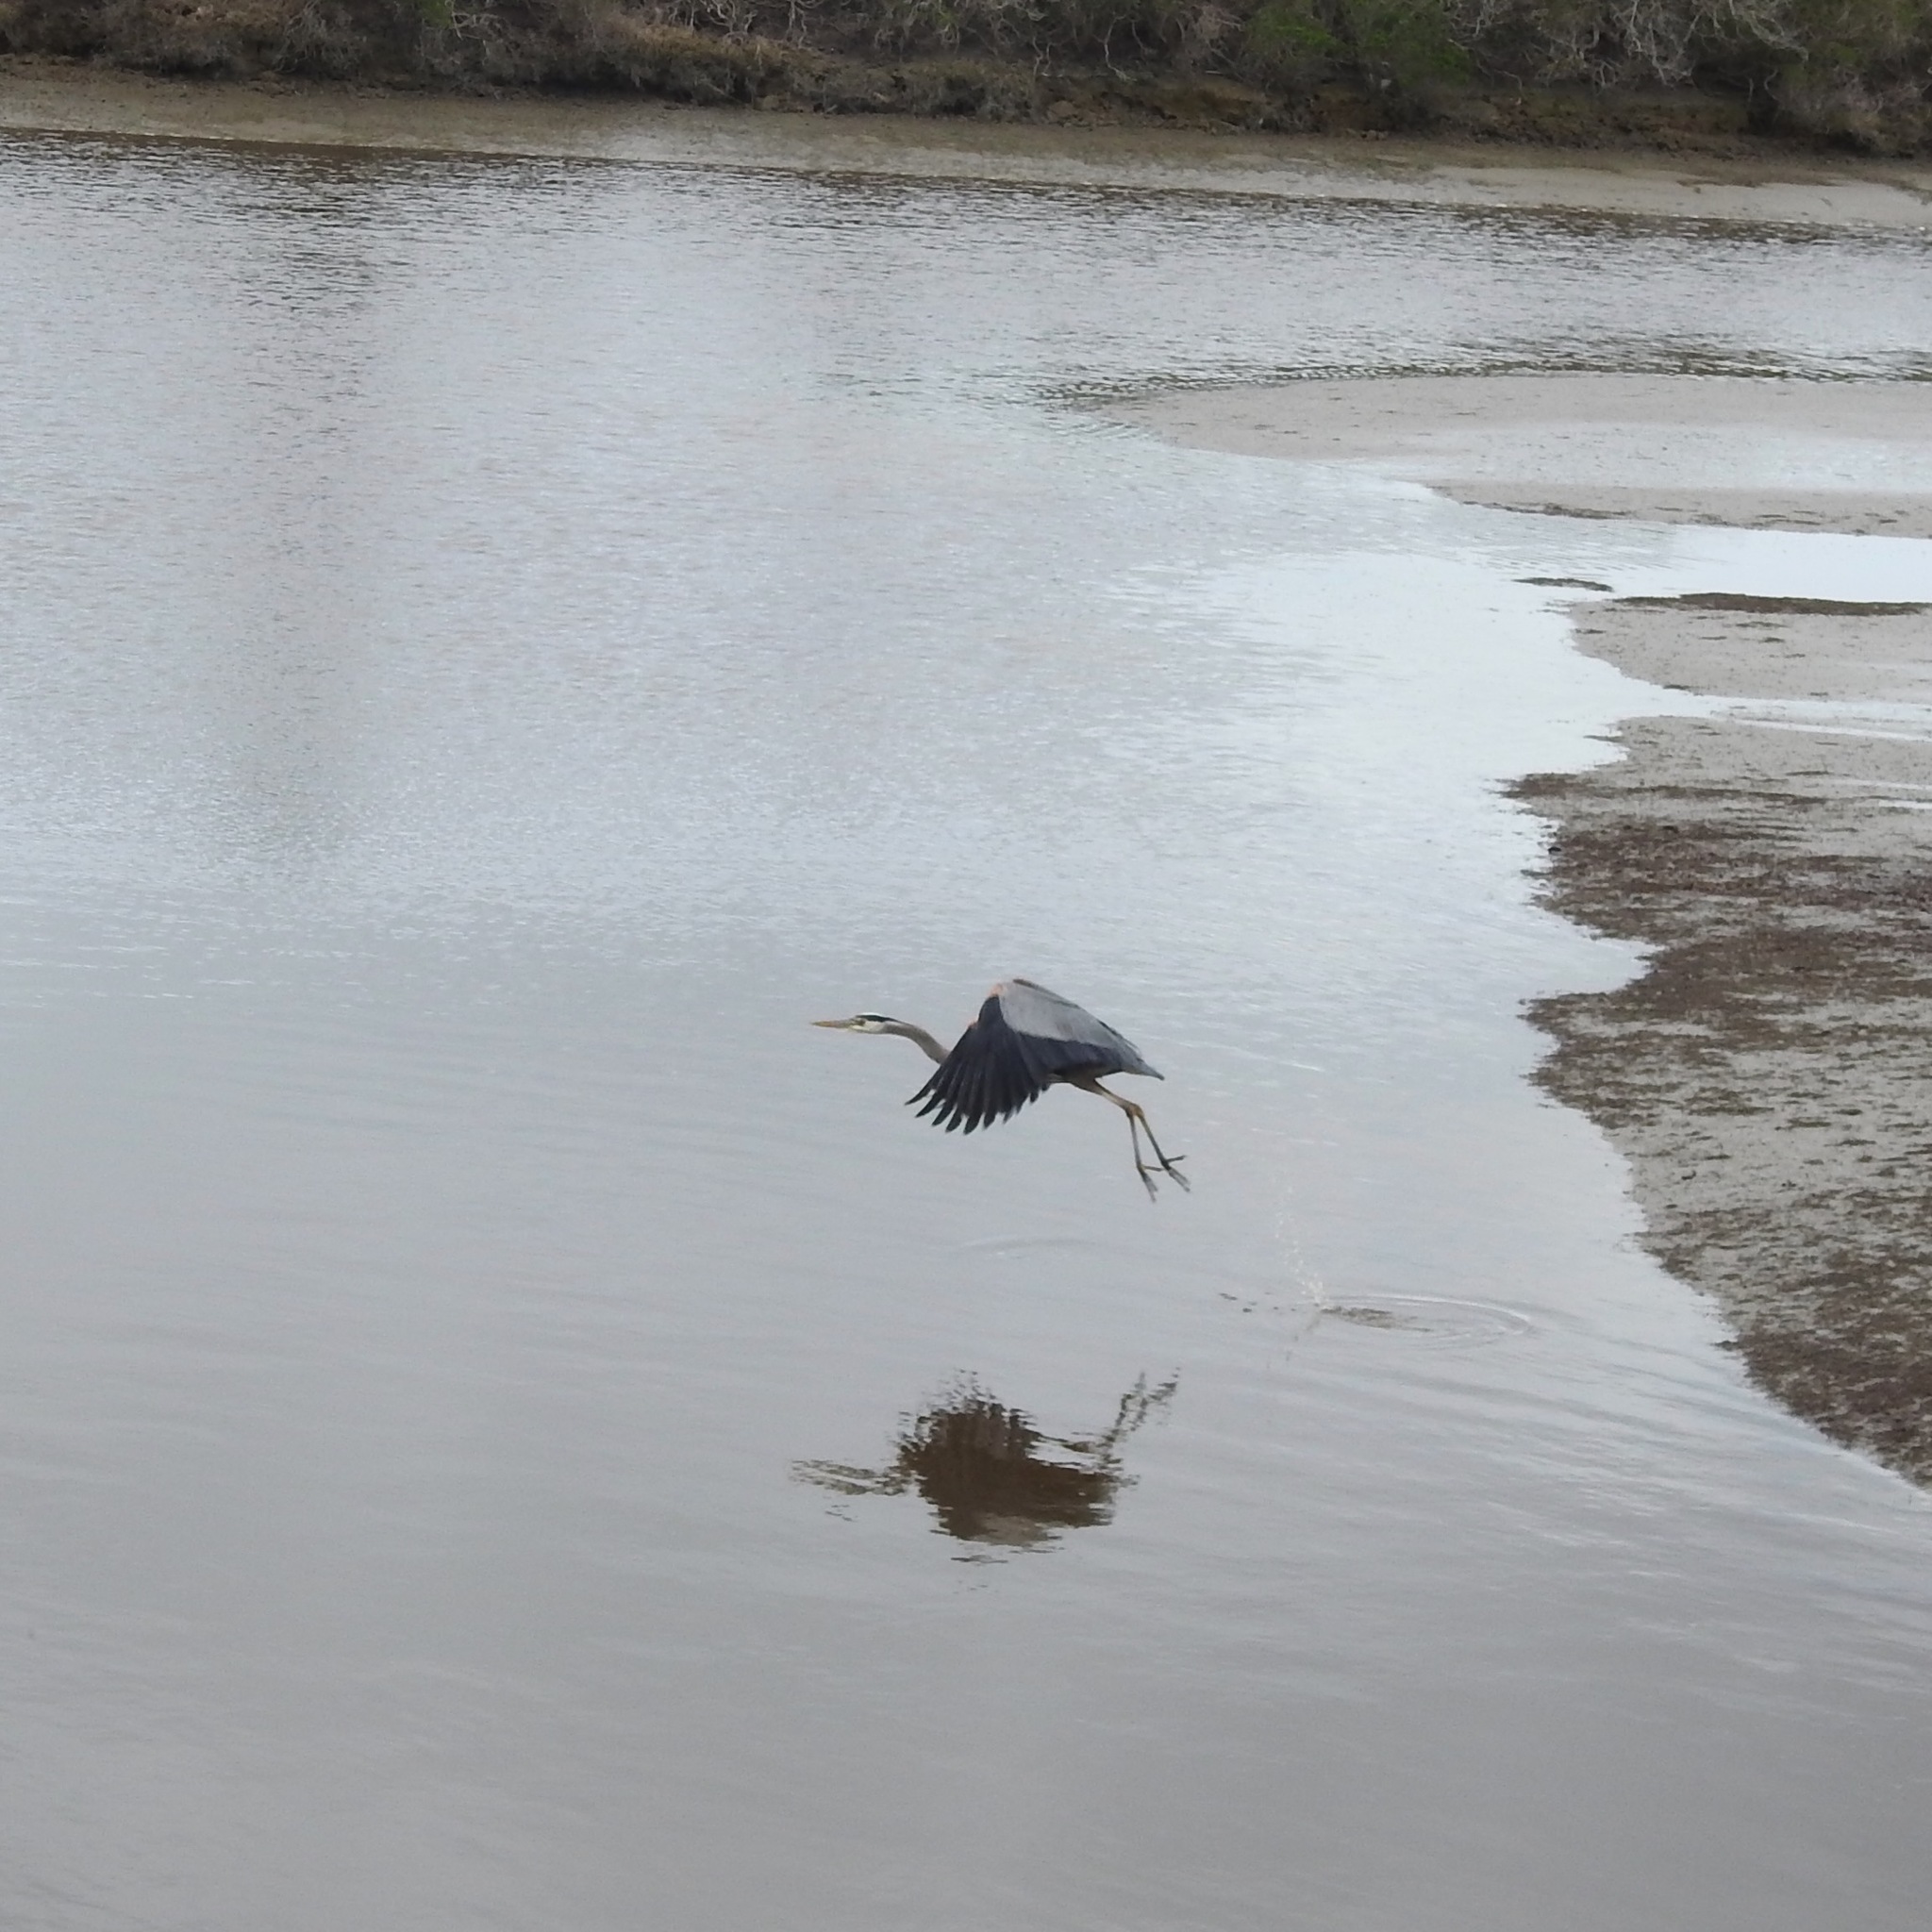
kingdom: Animalia
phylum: Chordata
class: Aves
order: Pelecaniformes
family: Ardeidae
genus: Ardea
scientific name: Ardea herodias
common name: Great blue heron
